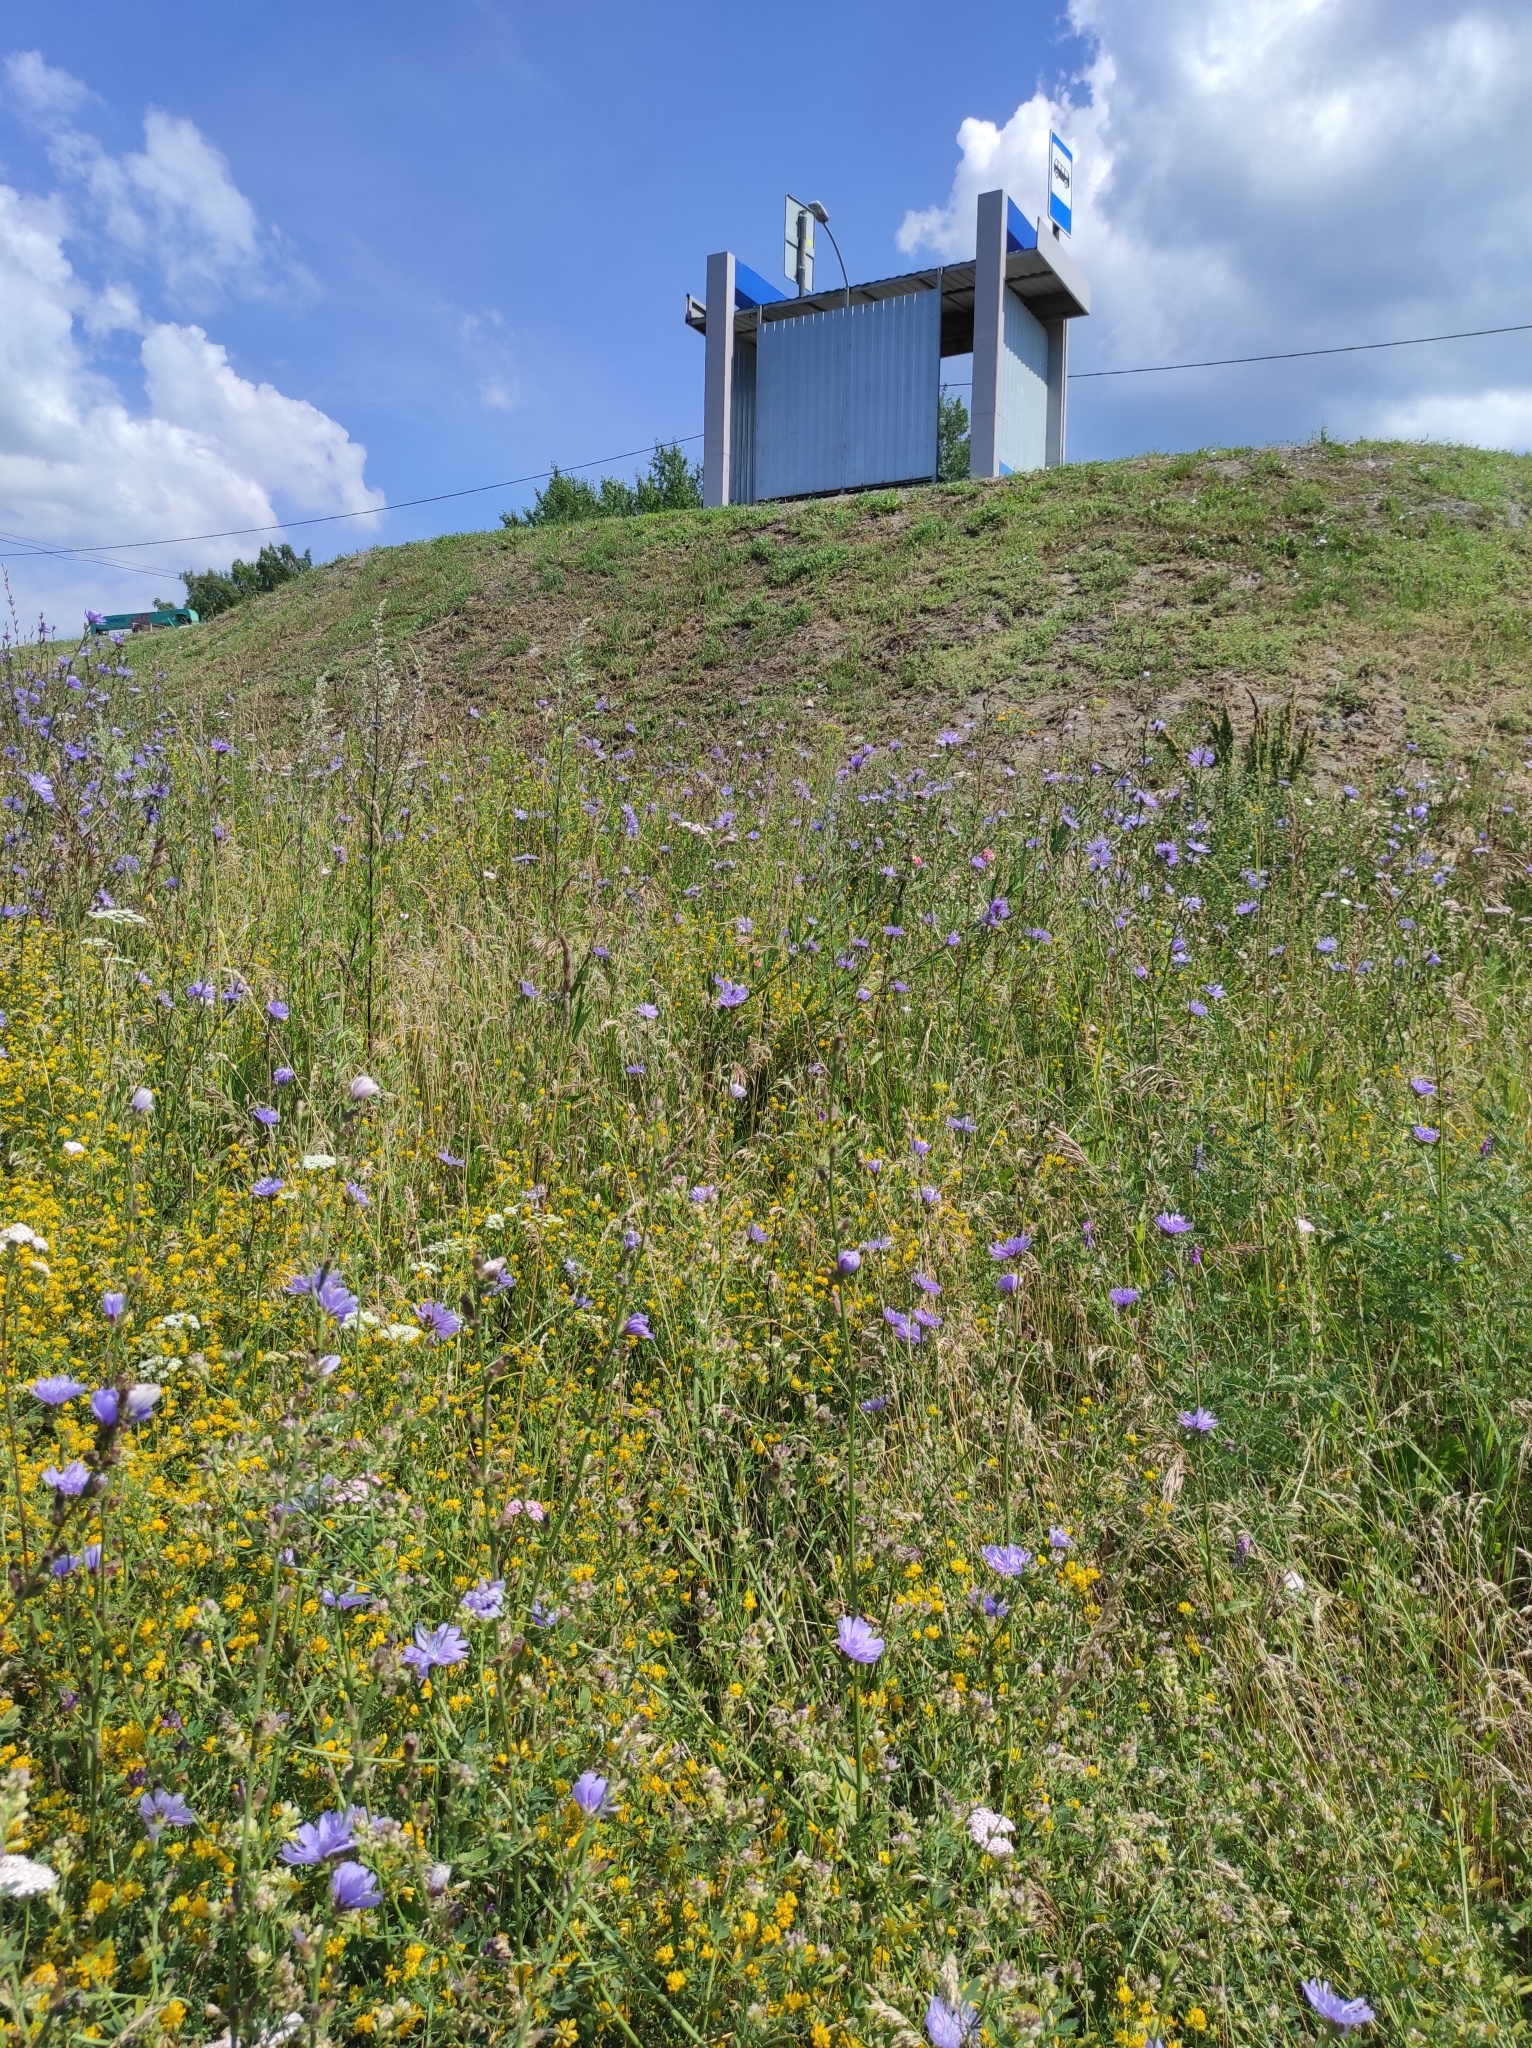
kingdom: Plantae
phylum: Tracheophyta
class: Magnoliopsida
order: Asterales
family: Asteraceae
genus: Cichorium
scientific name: Cichorium intybus
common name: Chicory
